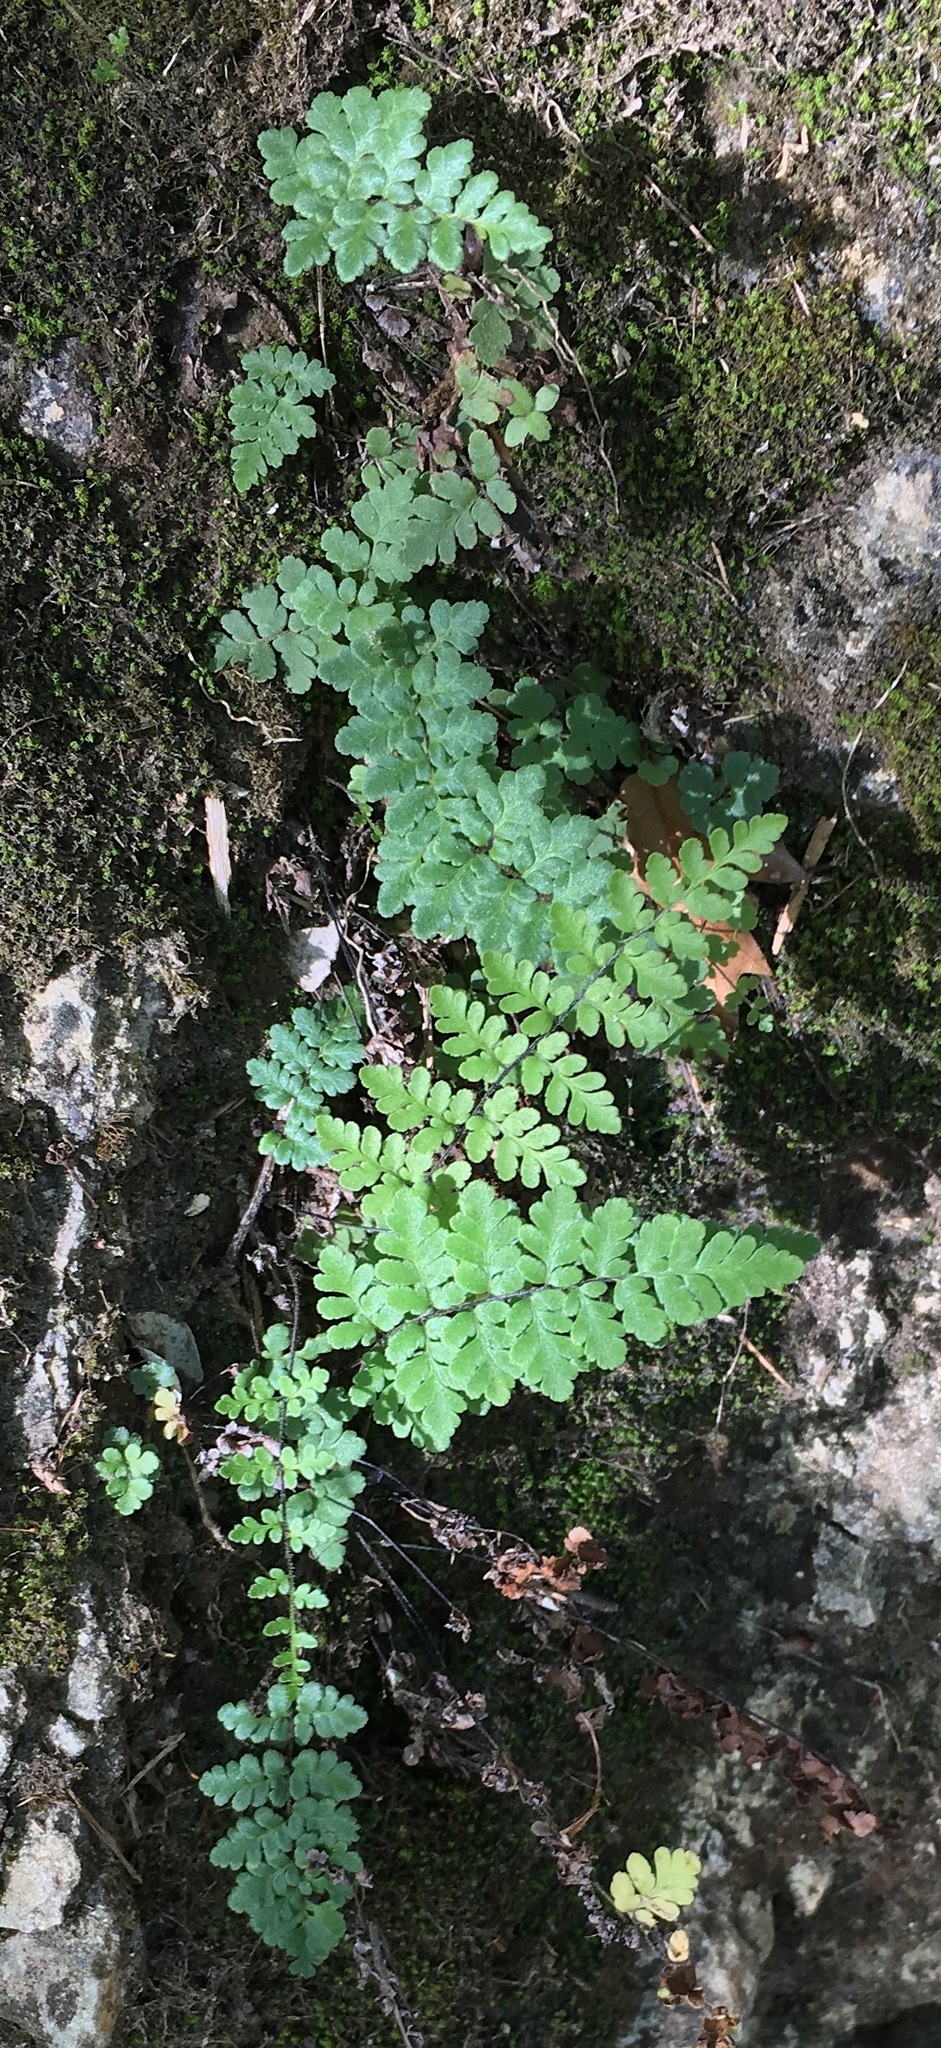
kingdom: Plantae
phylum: Tracheophyta
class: Polypodiopsida
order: Polypodiales
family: Pteridaceae
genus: Myriopteris
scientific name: Myriopteris alabamensis
